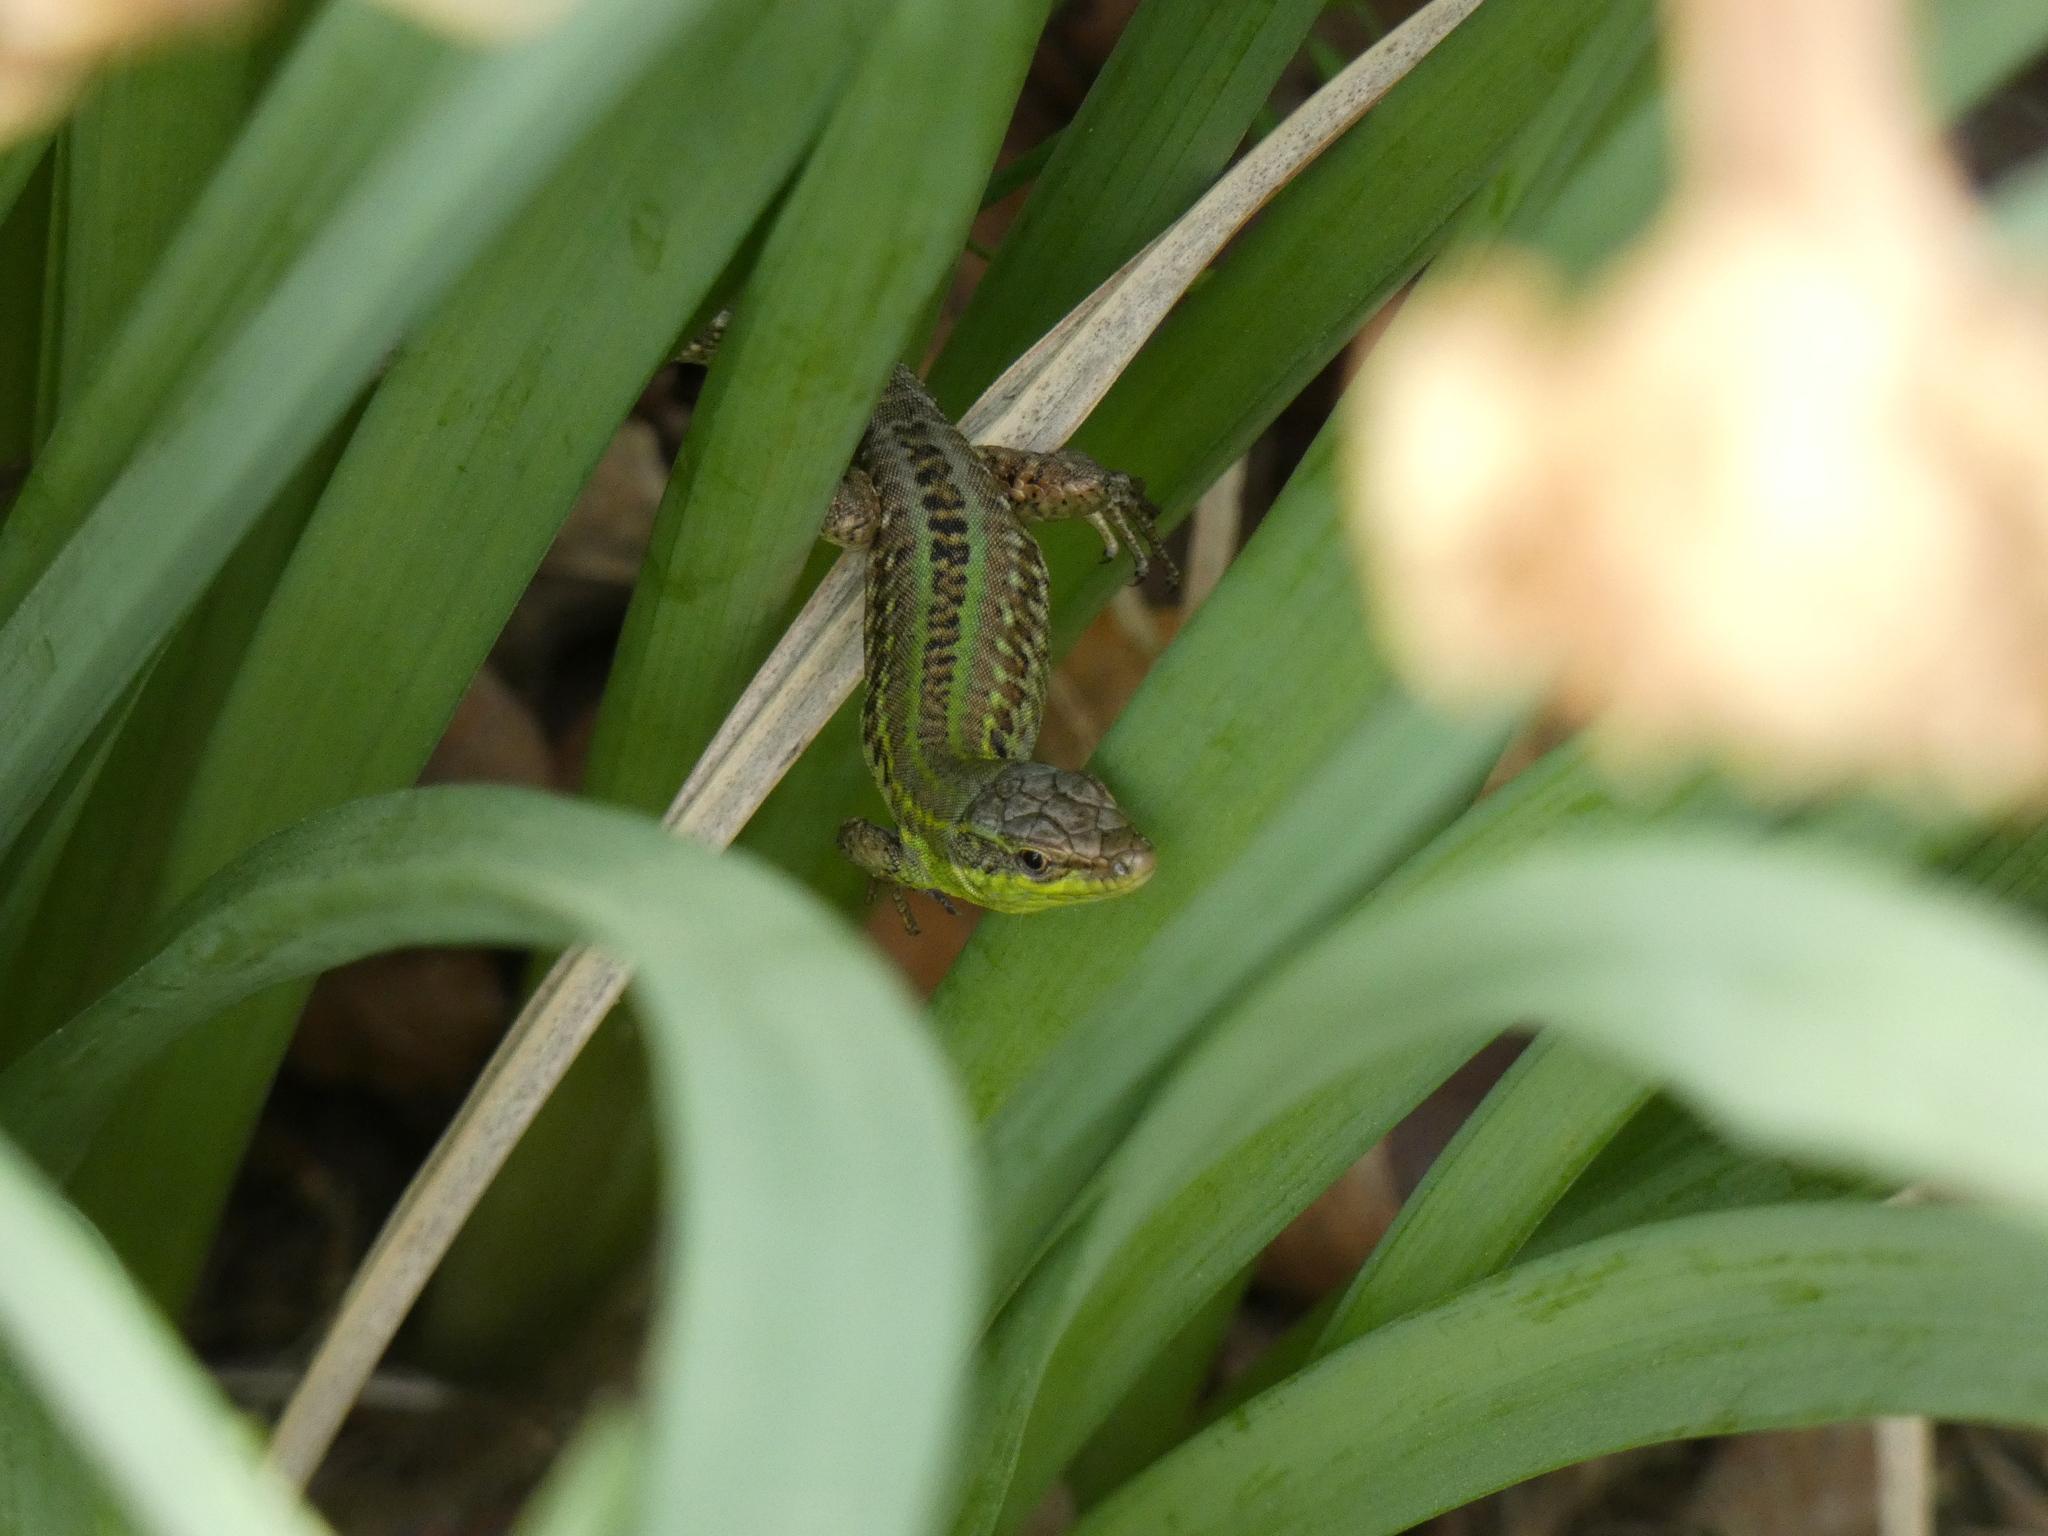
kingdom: Animalia
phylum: Chordata
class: Squamata
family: Lacertidae
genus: Podarcis
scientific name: Podarcis siculus
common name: Italian wall lizard
